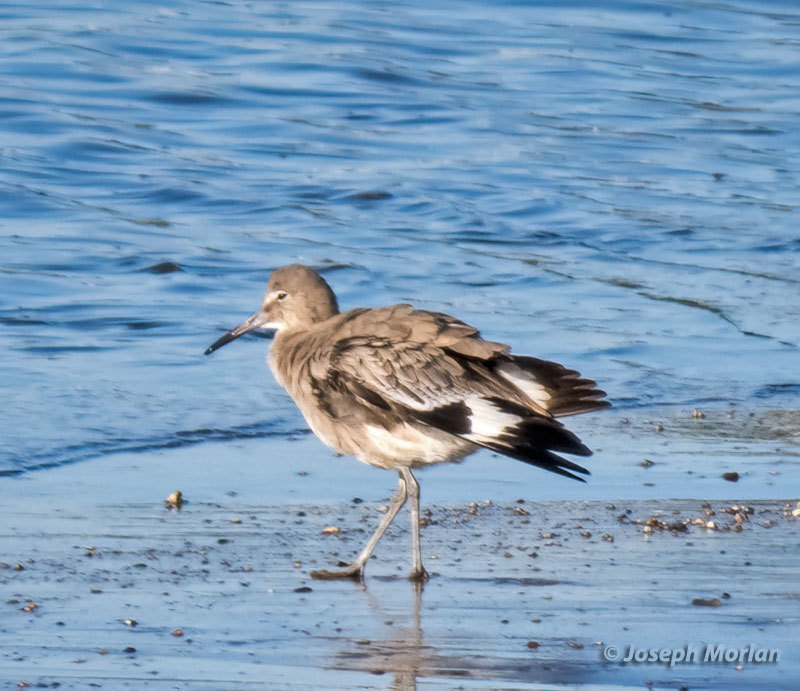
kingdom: Animalia
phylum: Chordata
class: Aves
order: Charadriiformes
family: Scolopacidae
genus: Tringa
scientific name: Tringa semipalmata
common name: Willet
